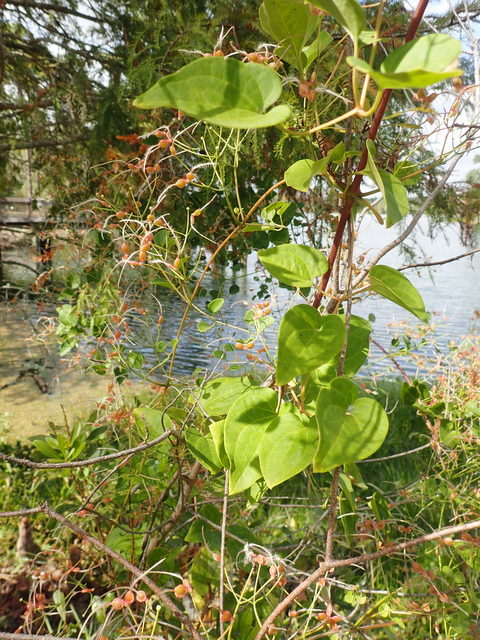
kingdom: Plantae
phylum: Tracheophyta
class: Magnoliopsida
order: Ranunculales
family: Ranunculaceae
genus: Clematis
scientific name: Clematis terniflora
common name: Sweet autumn clematis
